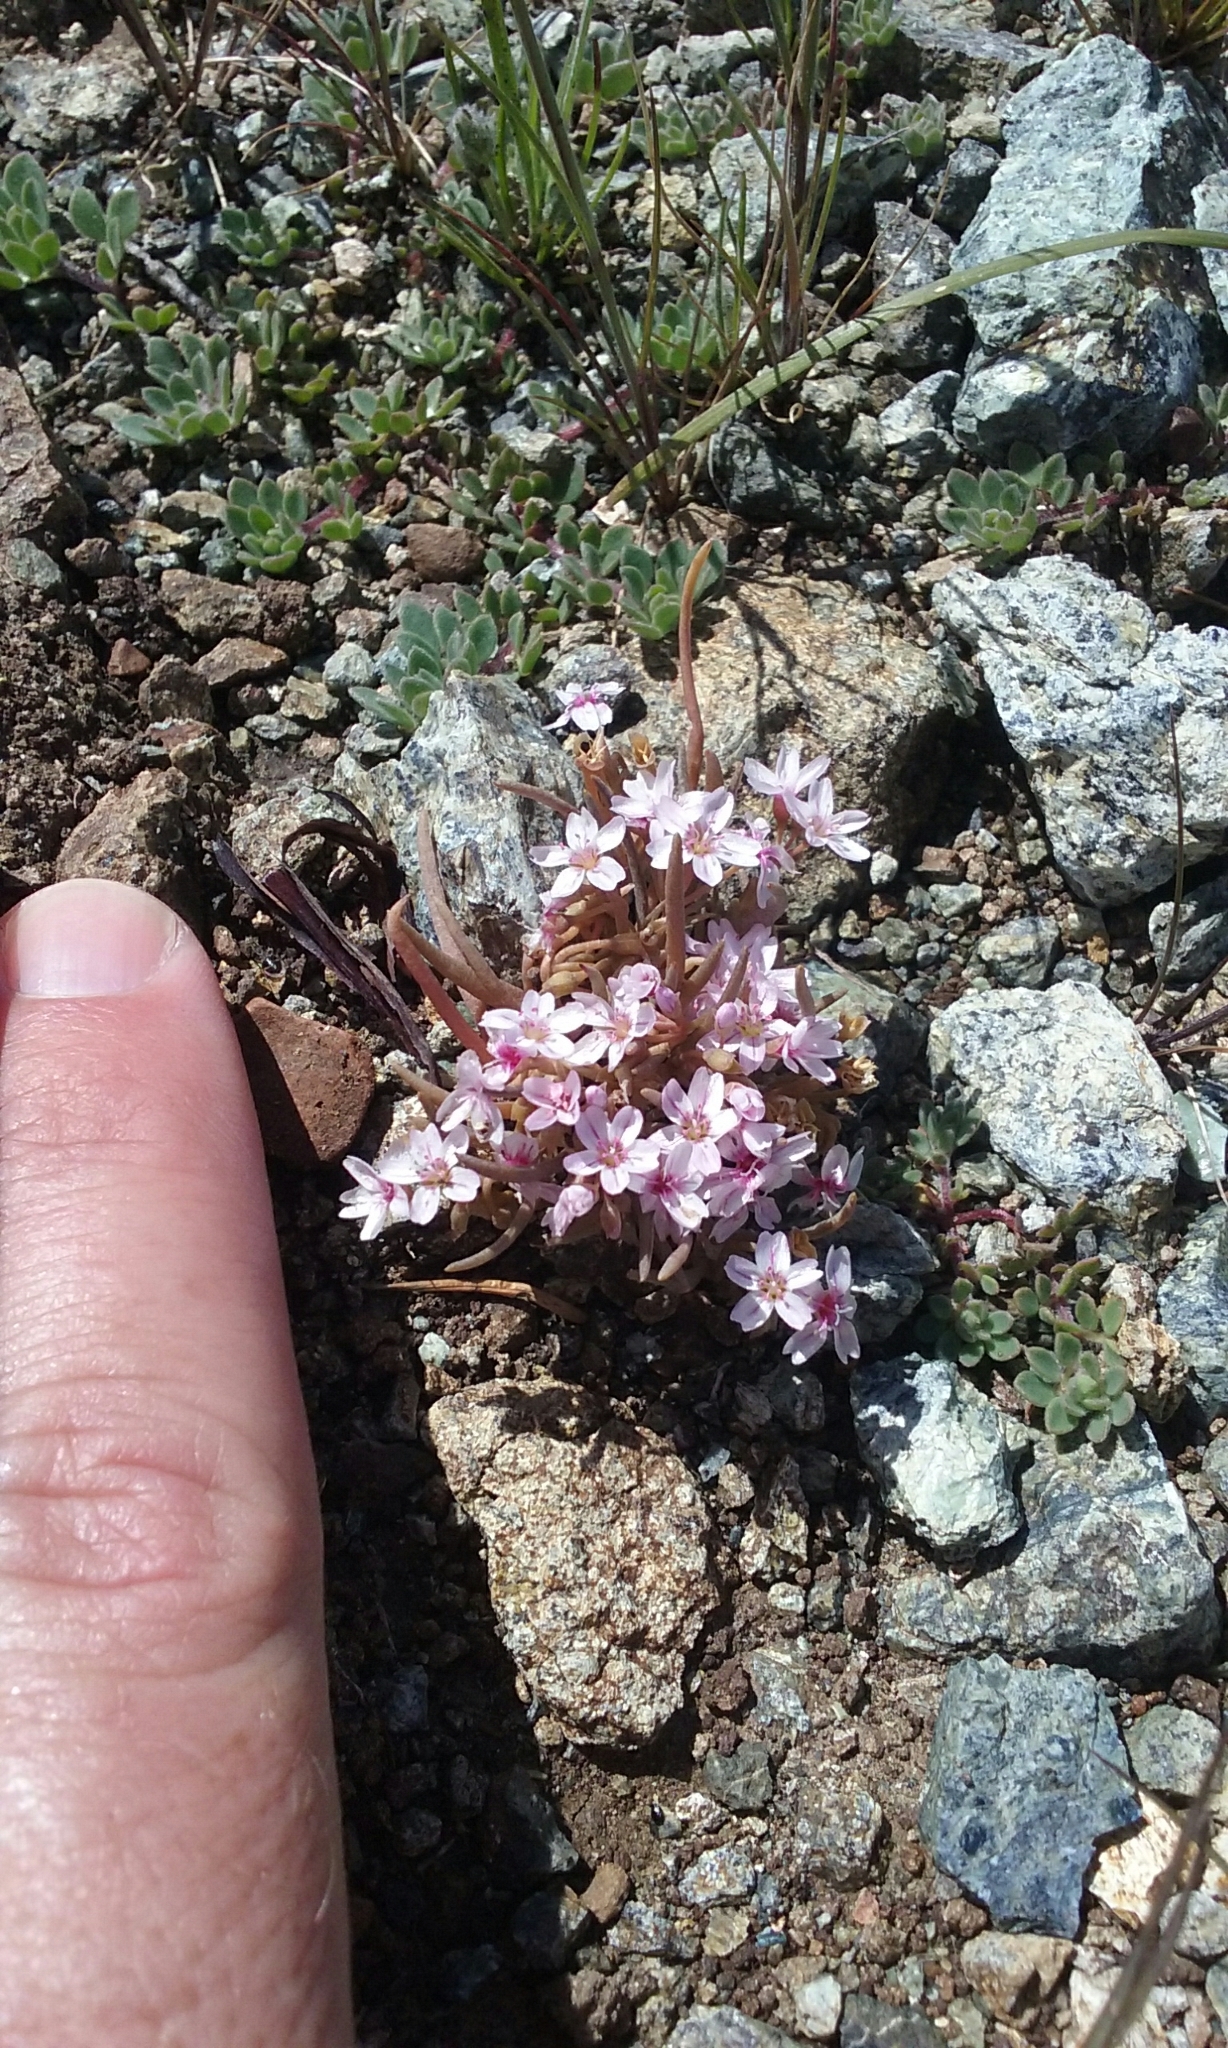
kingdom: Plantae
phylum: Tracheophyta
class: Magnoliopsida
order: Caryophyllales
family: Montiaceae
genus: Claytonia
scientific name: Claytonia exigua
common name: Pale spring beauty
